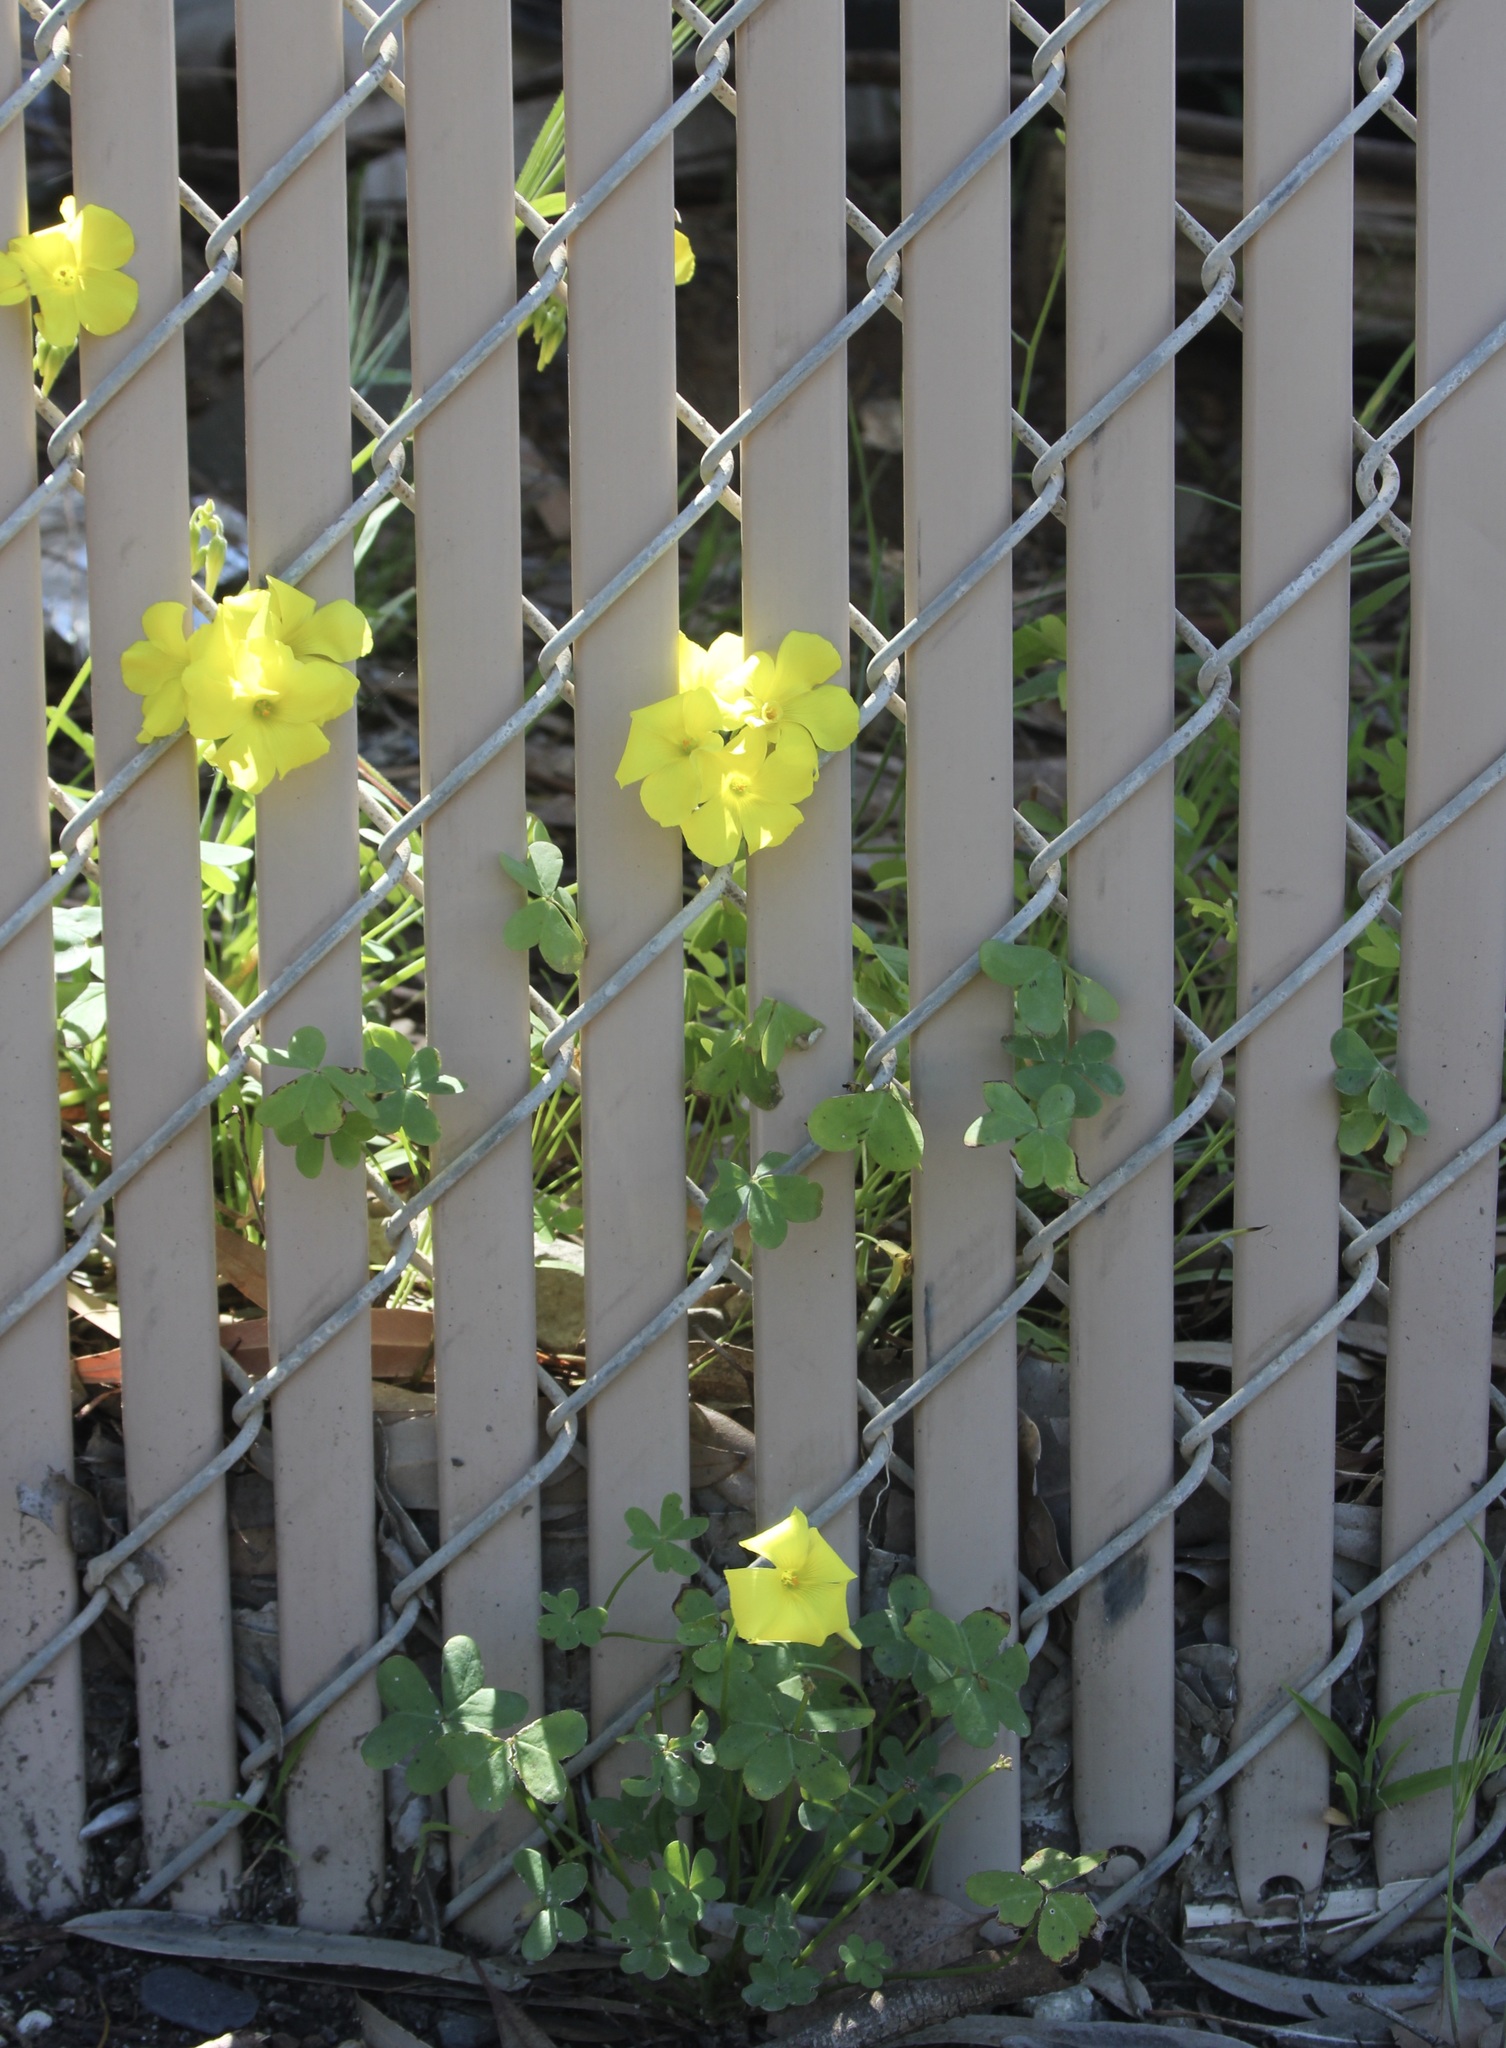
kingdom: Plantae
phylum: Tracheophyta
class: Magnoliopsida
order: Oxalidales
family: Oxalidaceae
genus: Oxalis
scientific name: Oxalis pes-caprae
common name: Bermuda-buttercup
